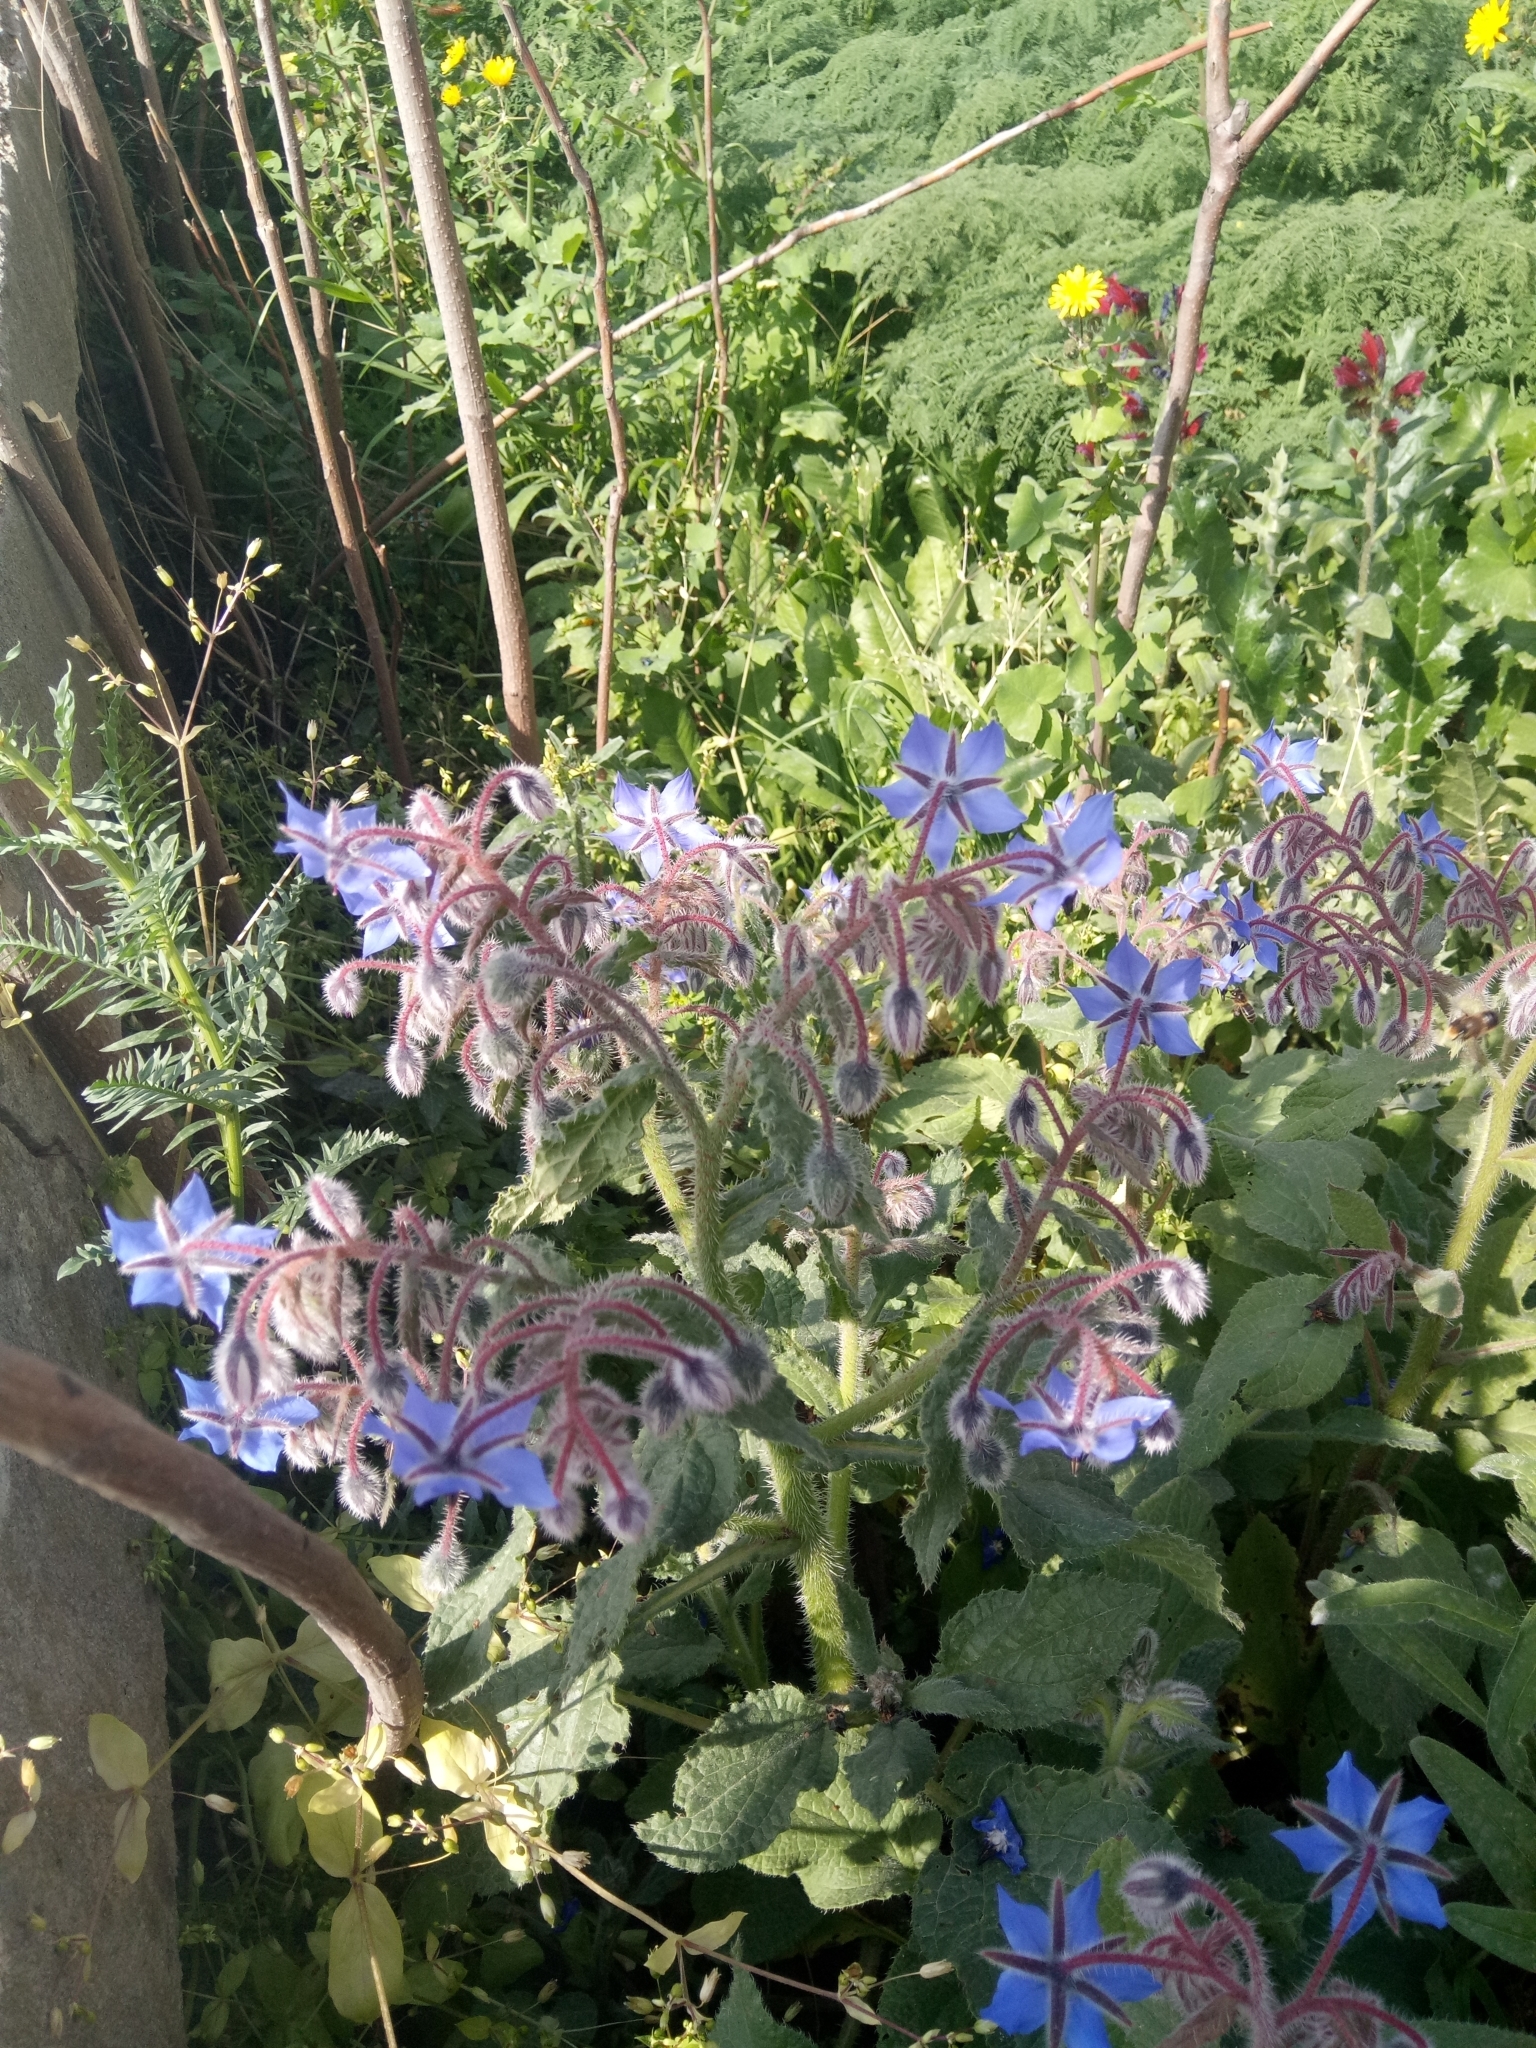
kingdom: Plantae
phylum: Tracheophyta
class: Magnoliopsida
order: Boraginales
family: Boraginaceae
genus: Borago
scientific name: Borago officinalis
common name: Borage
